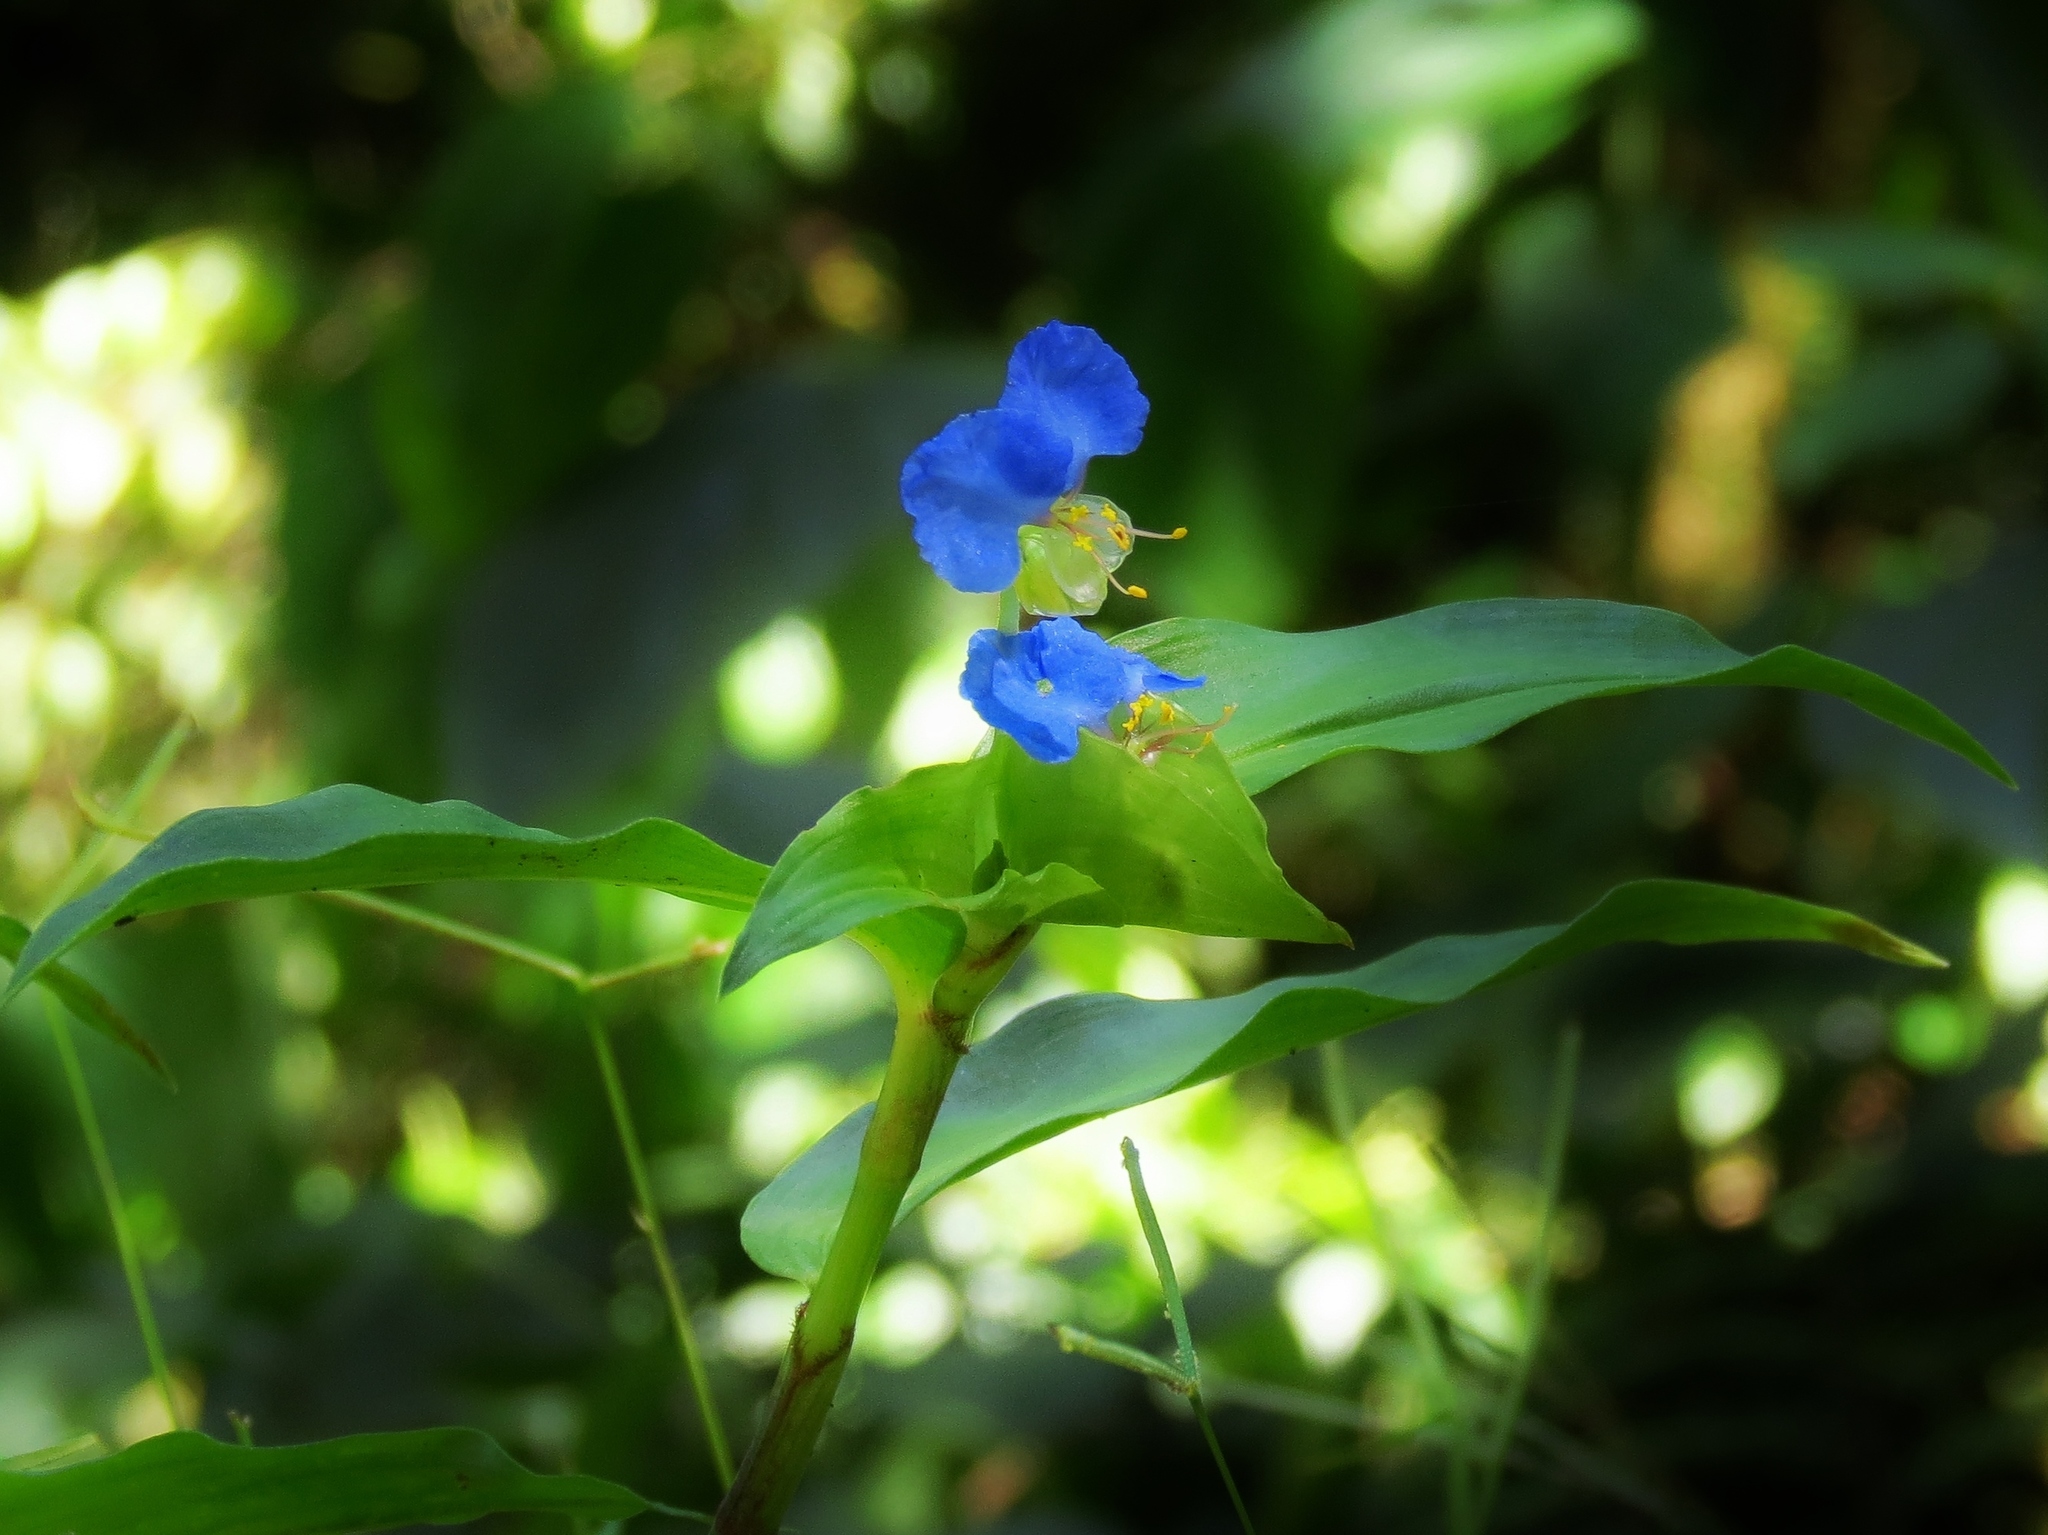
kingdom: Plantae
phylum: Tracheophyta
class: Liliopsida
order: Commelinales
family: Commelinaceae
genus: Commelina
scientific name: Commelina obliqua
